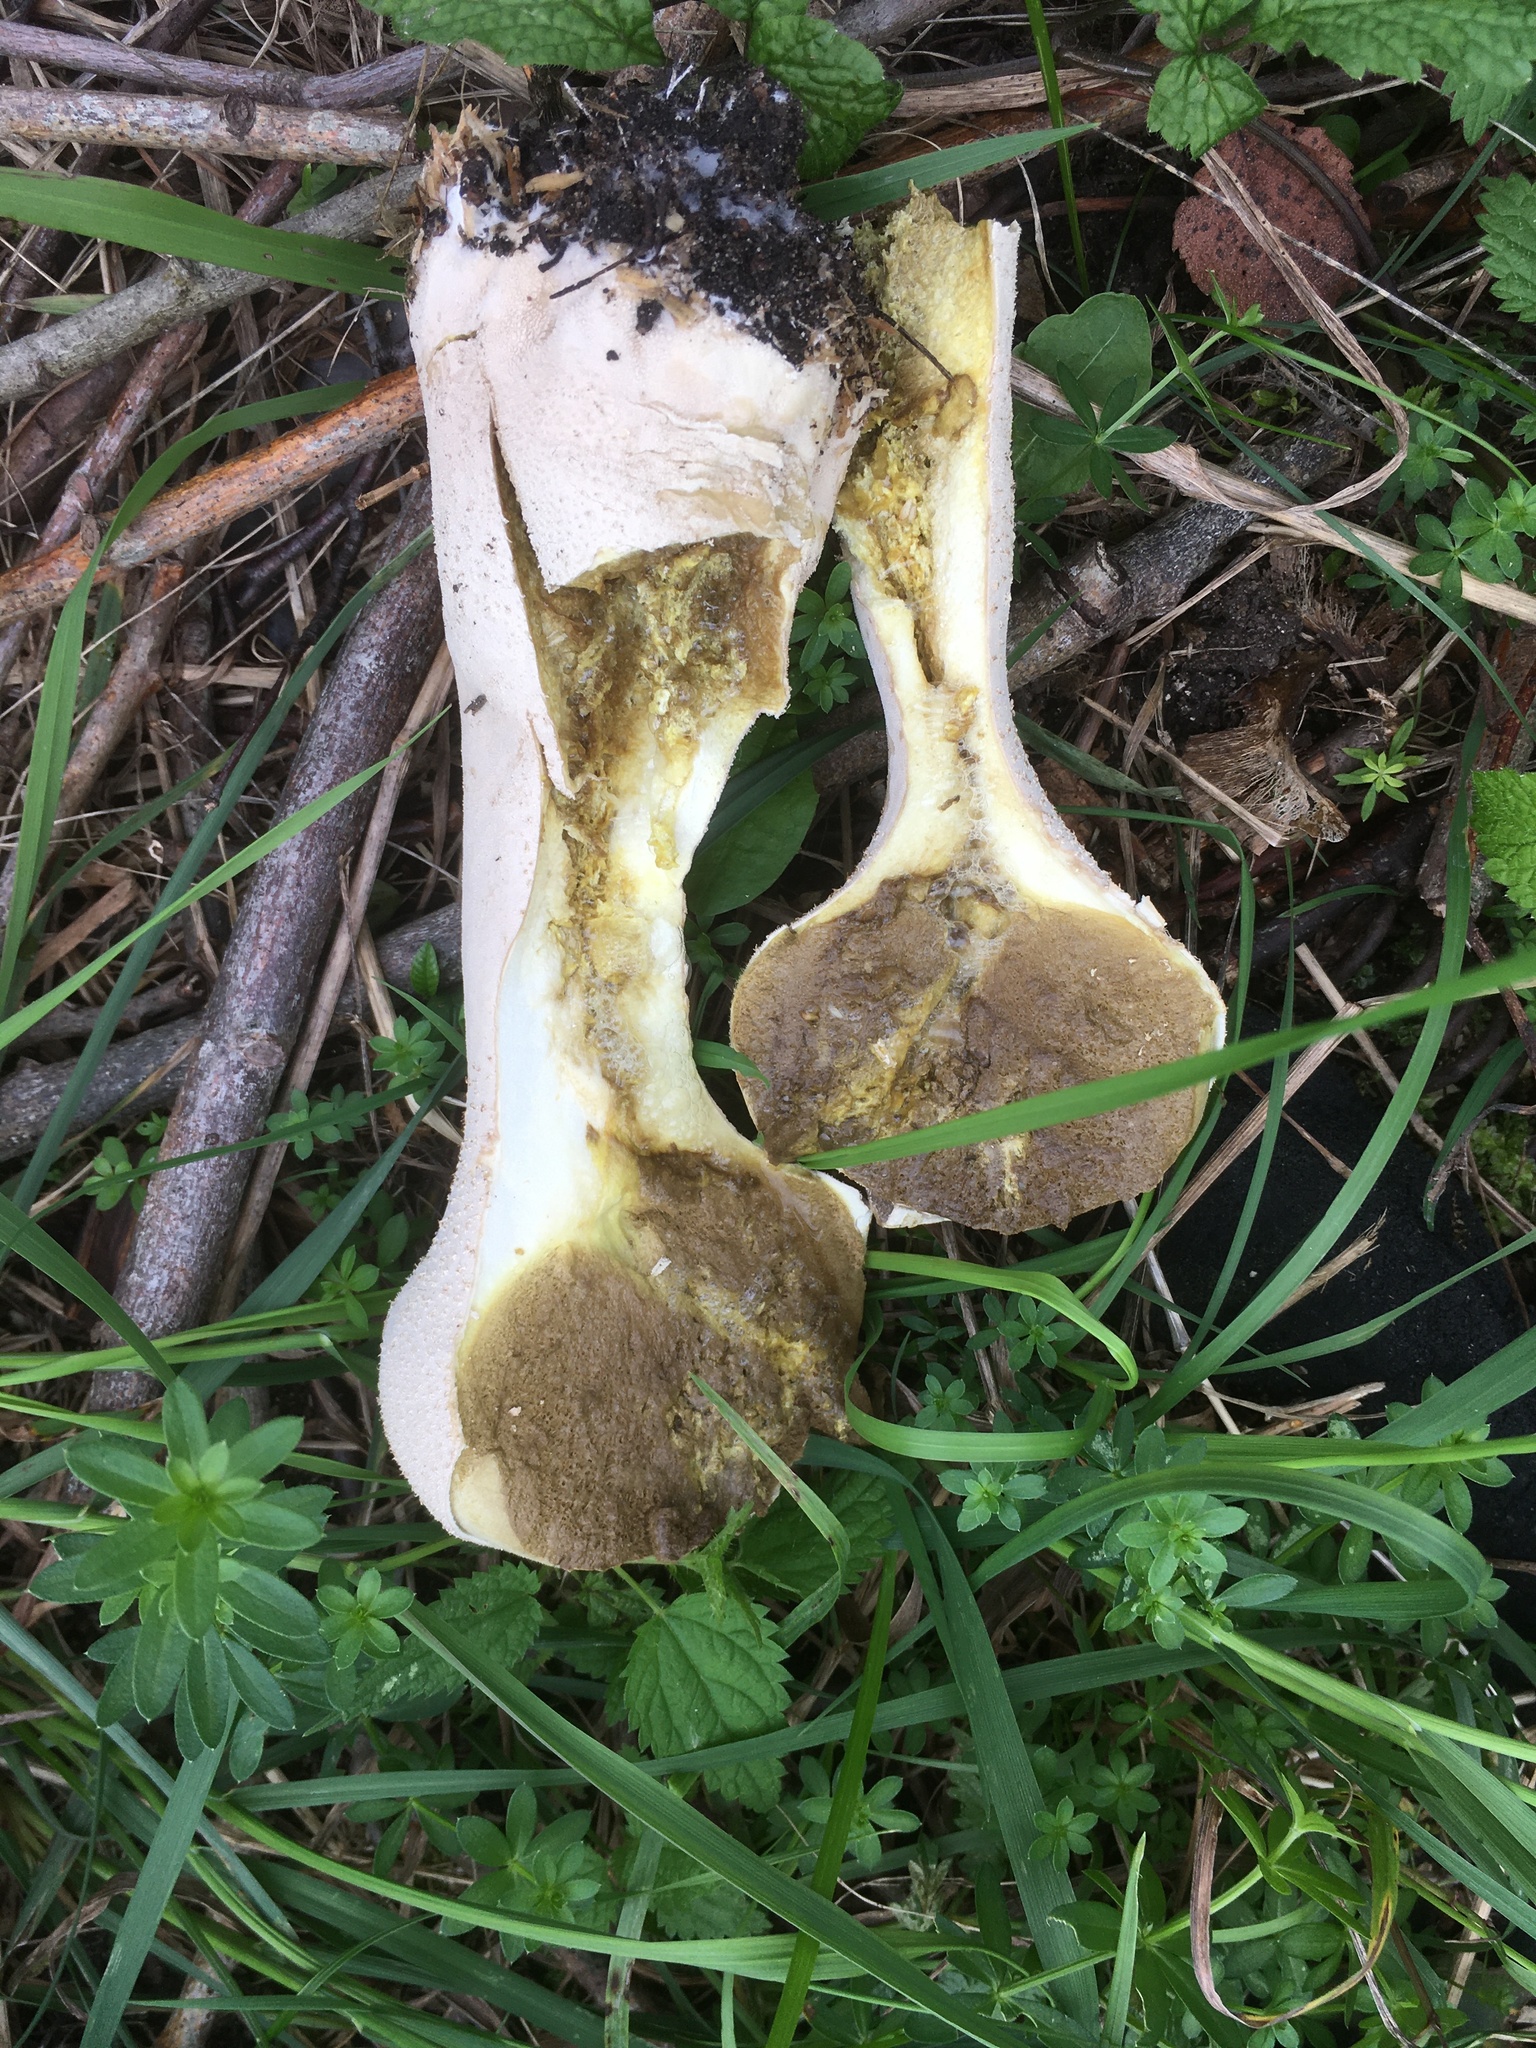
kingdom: Fungi
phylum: Basidiomycota
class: Agaricomycetes
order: Agaricales
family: Lycoperdaceae
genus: Lycoperdon
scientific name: Lycoperdon excipuliforme
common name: Pestle puffball
